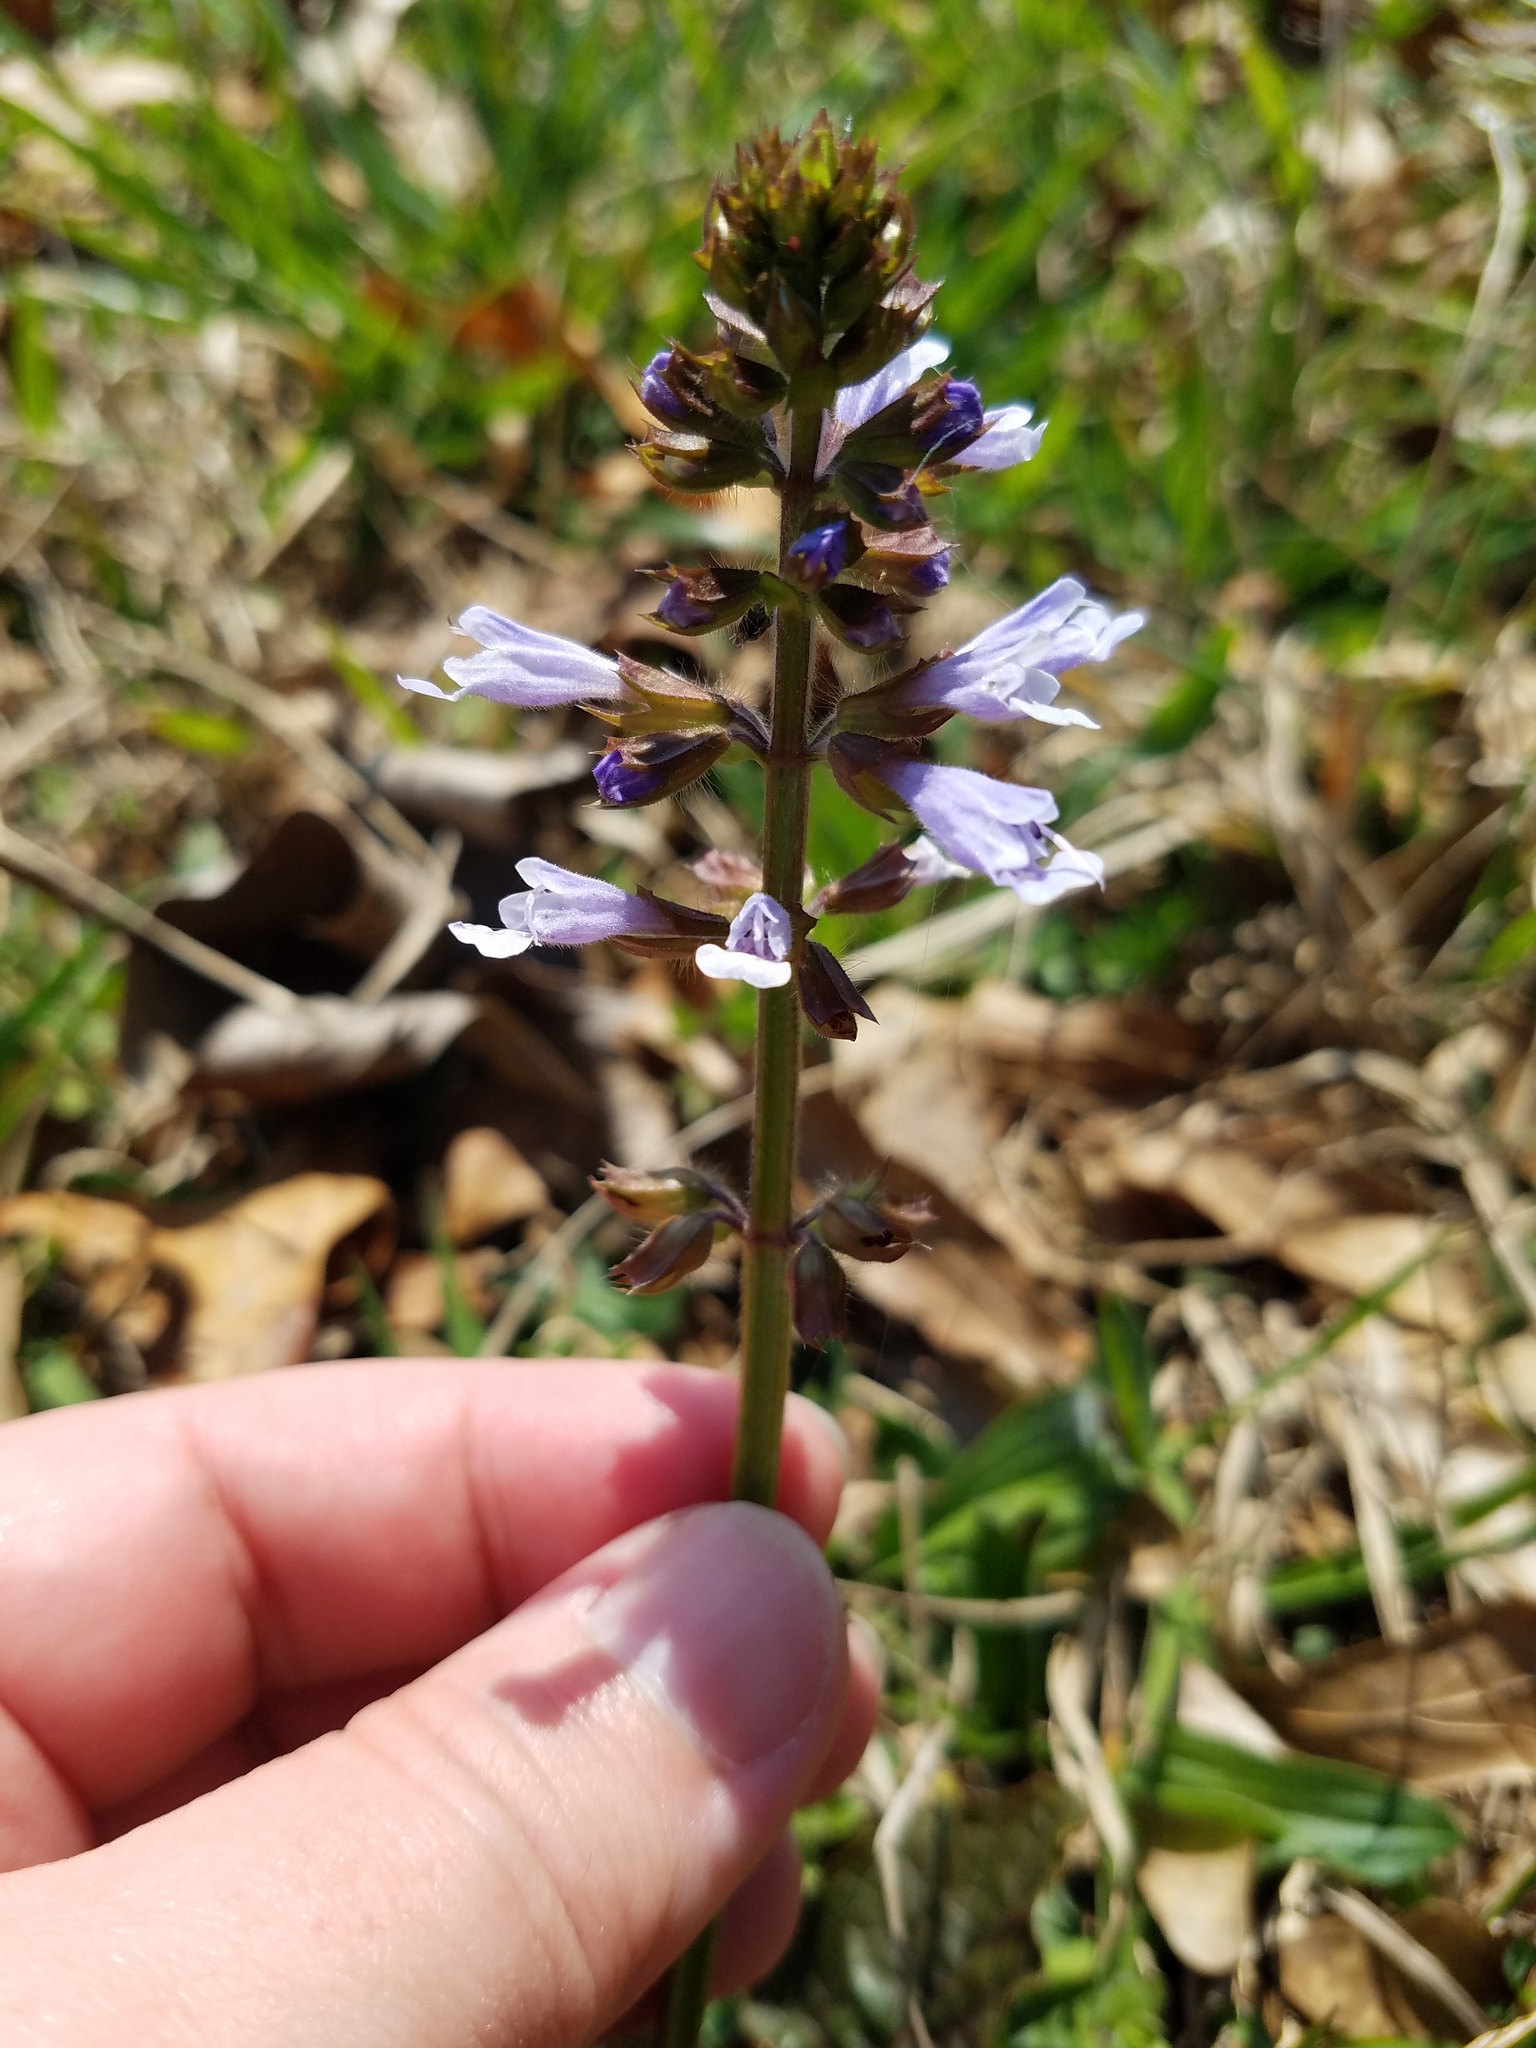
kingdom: Plantae
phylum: Tracheophyta
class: Magnoliopsida
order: Lamiales
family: Lamiaceae
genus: Salvia
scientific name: Salvia lyrata
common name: Cancerweed
